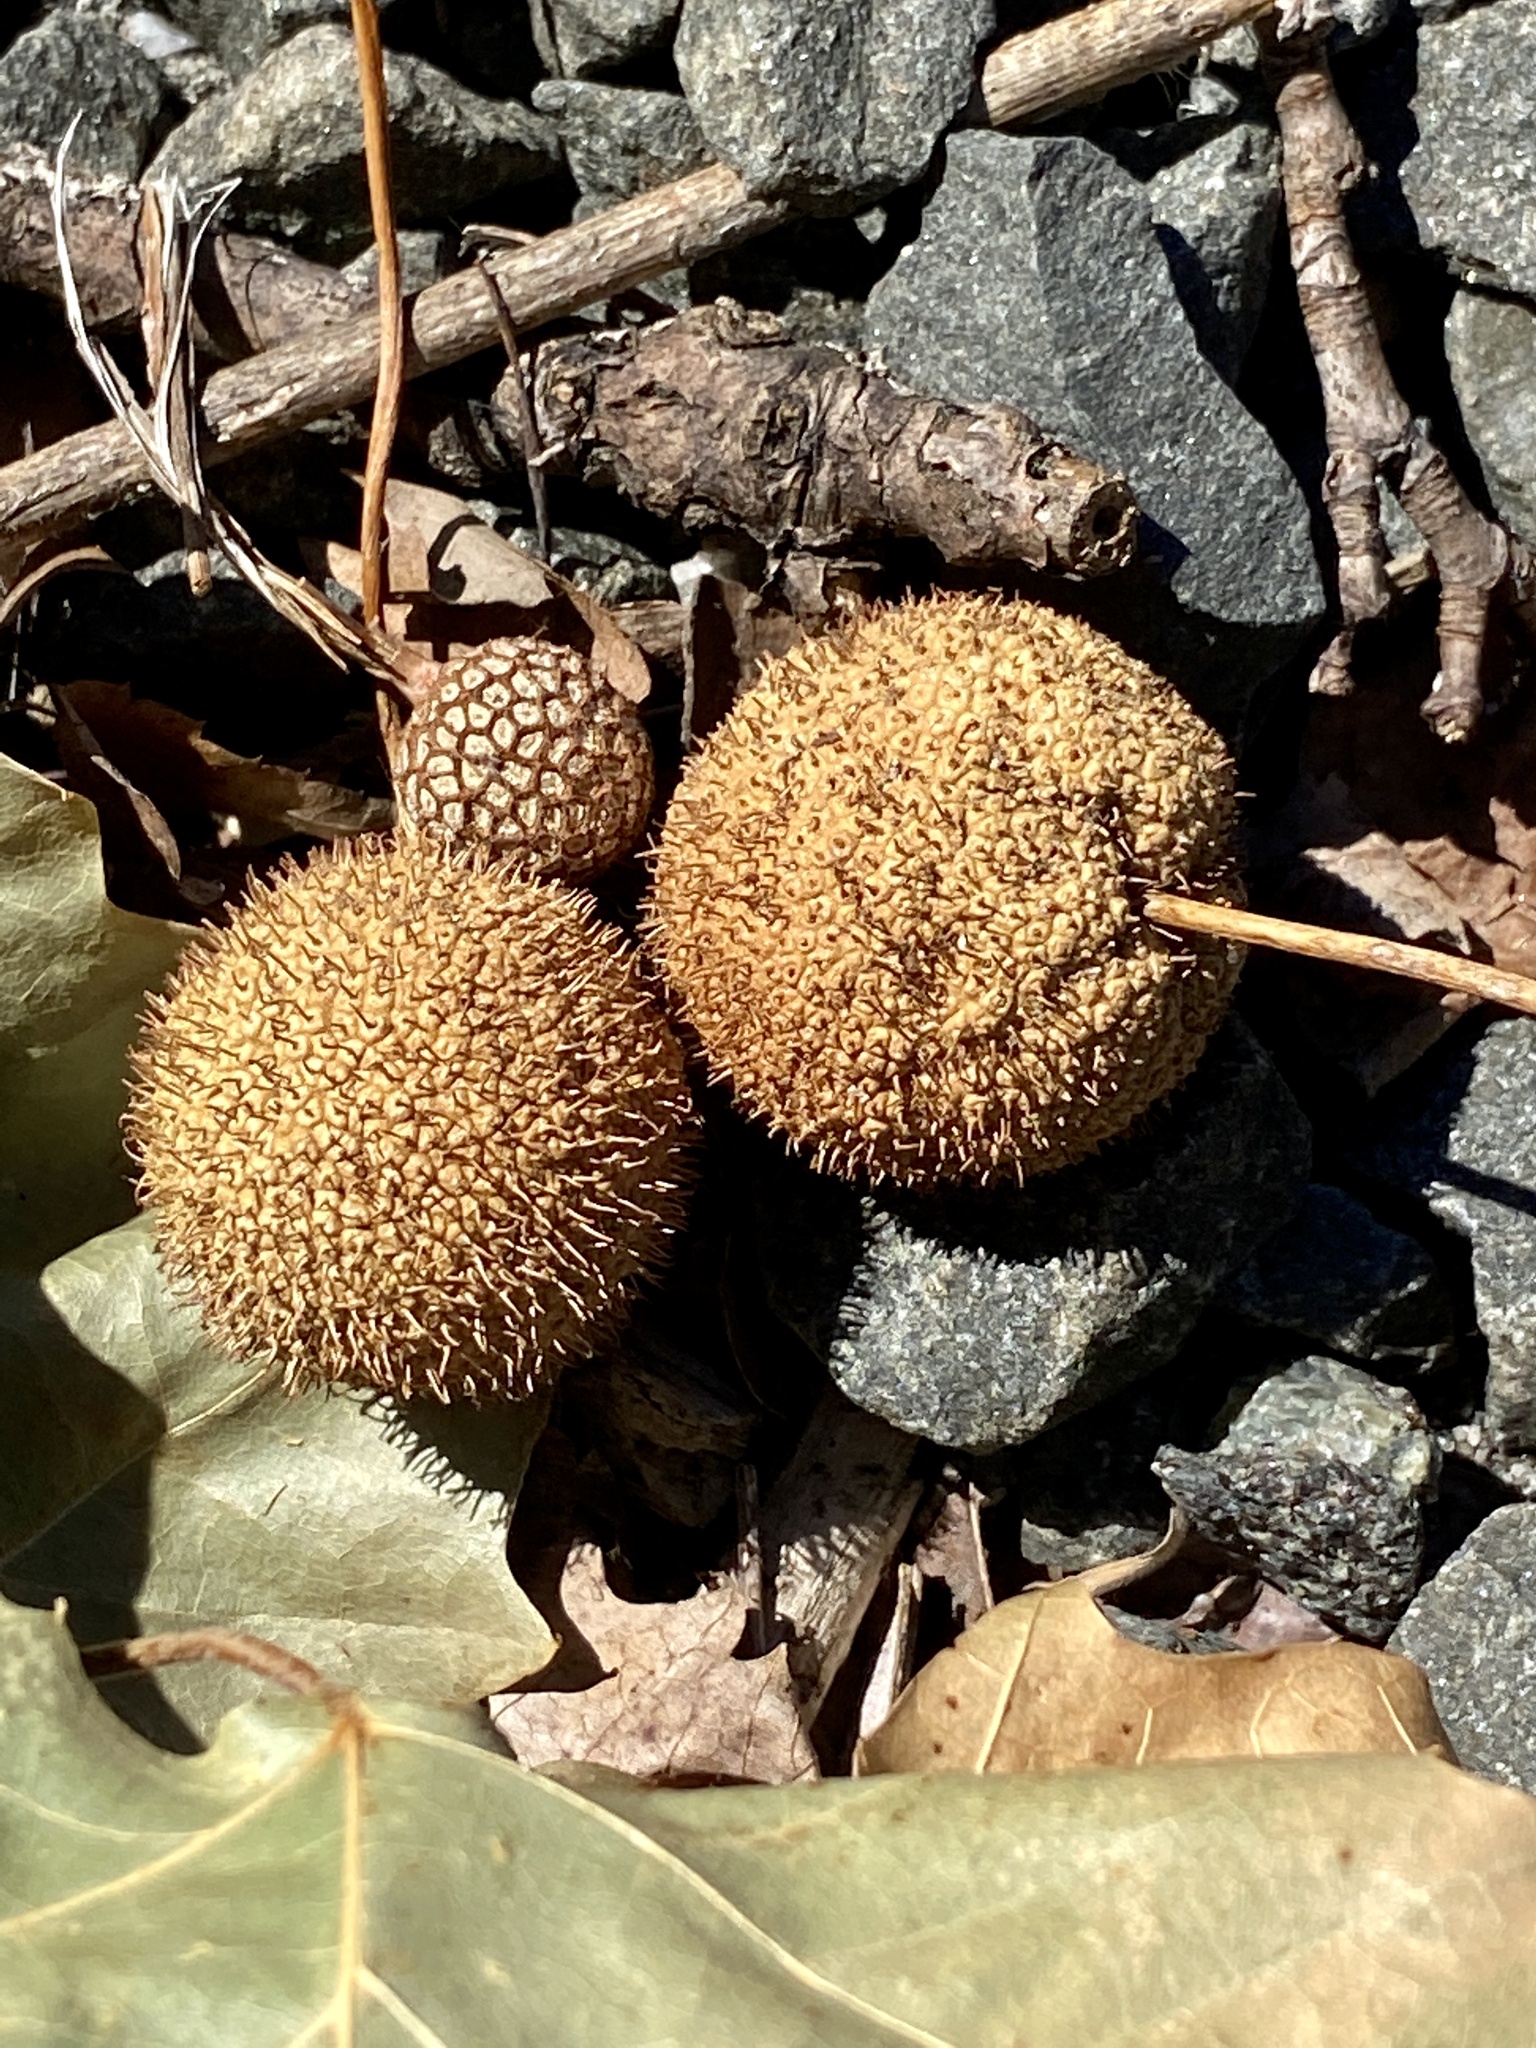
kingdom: Plantae
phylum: Tracheophyta
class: Magnoliopsida
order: Proteales
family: Platanaceae
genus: Platanus
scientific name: Platanus occidentalis
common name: American sycamore
